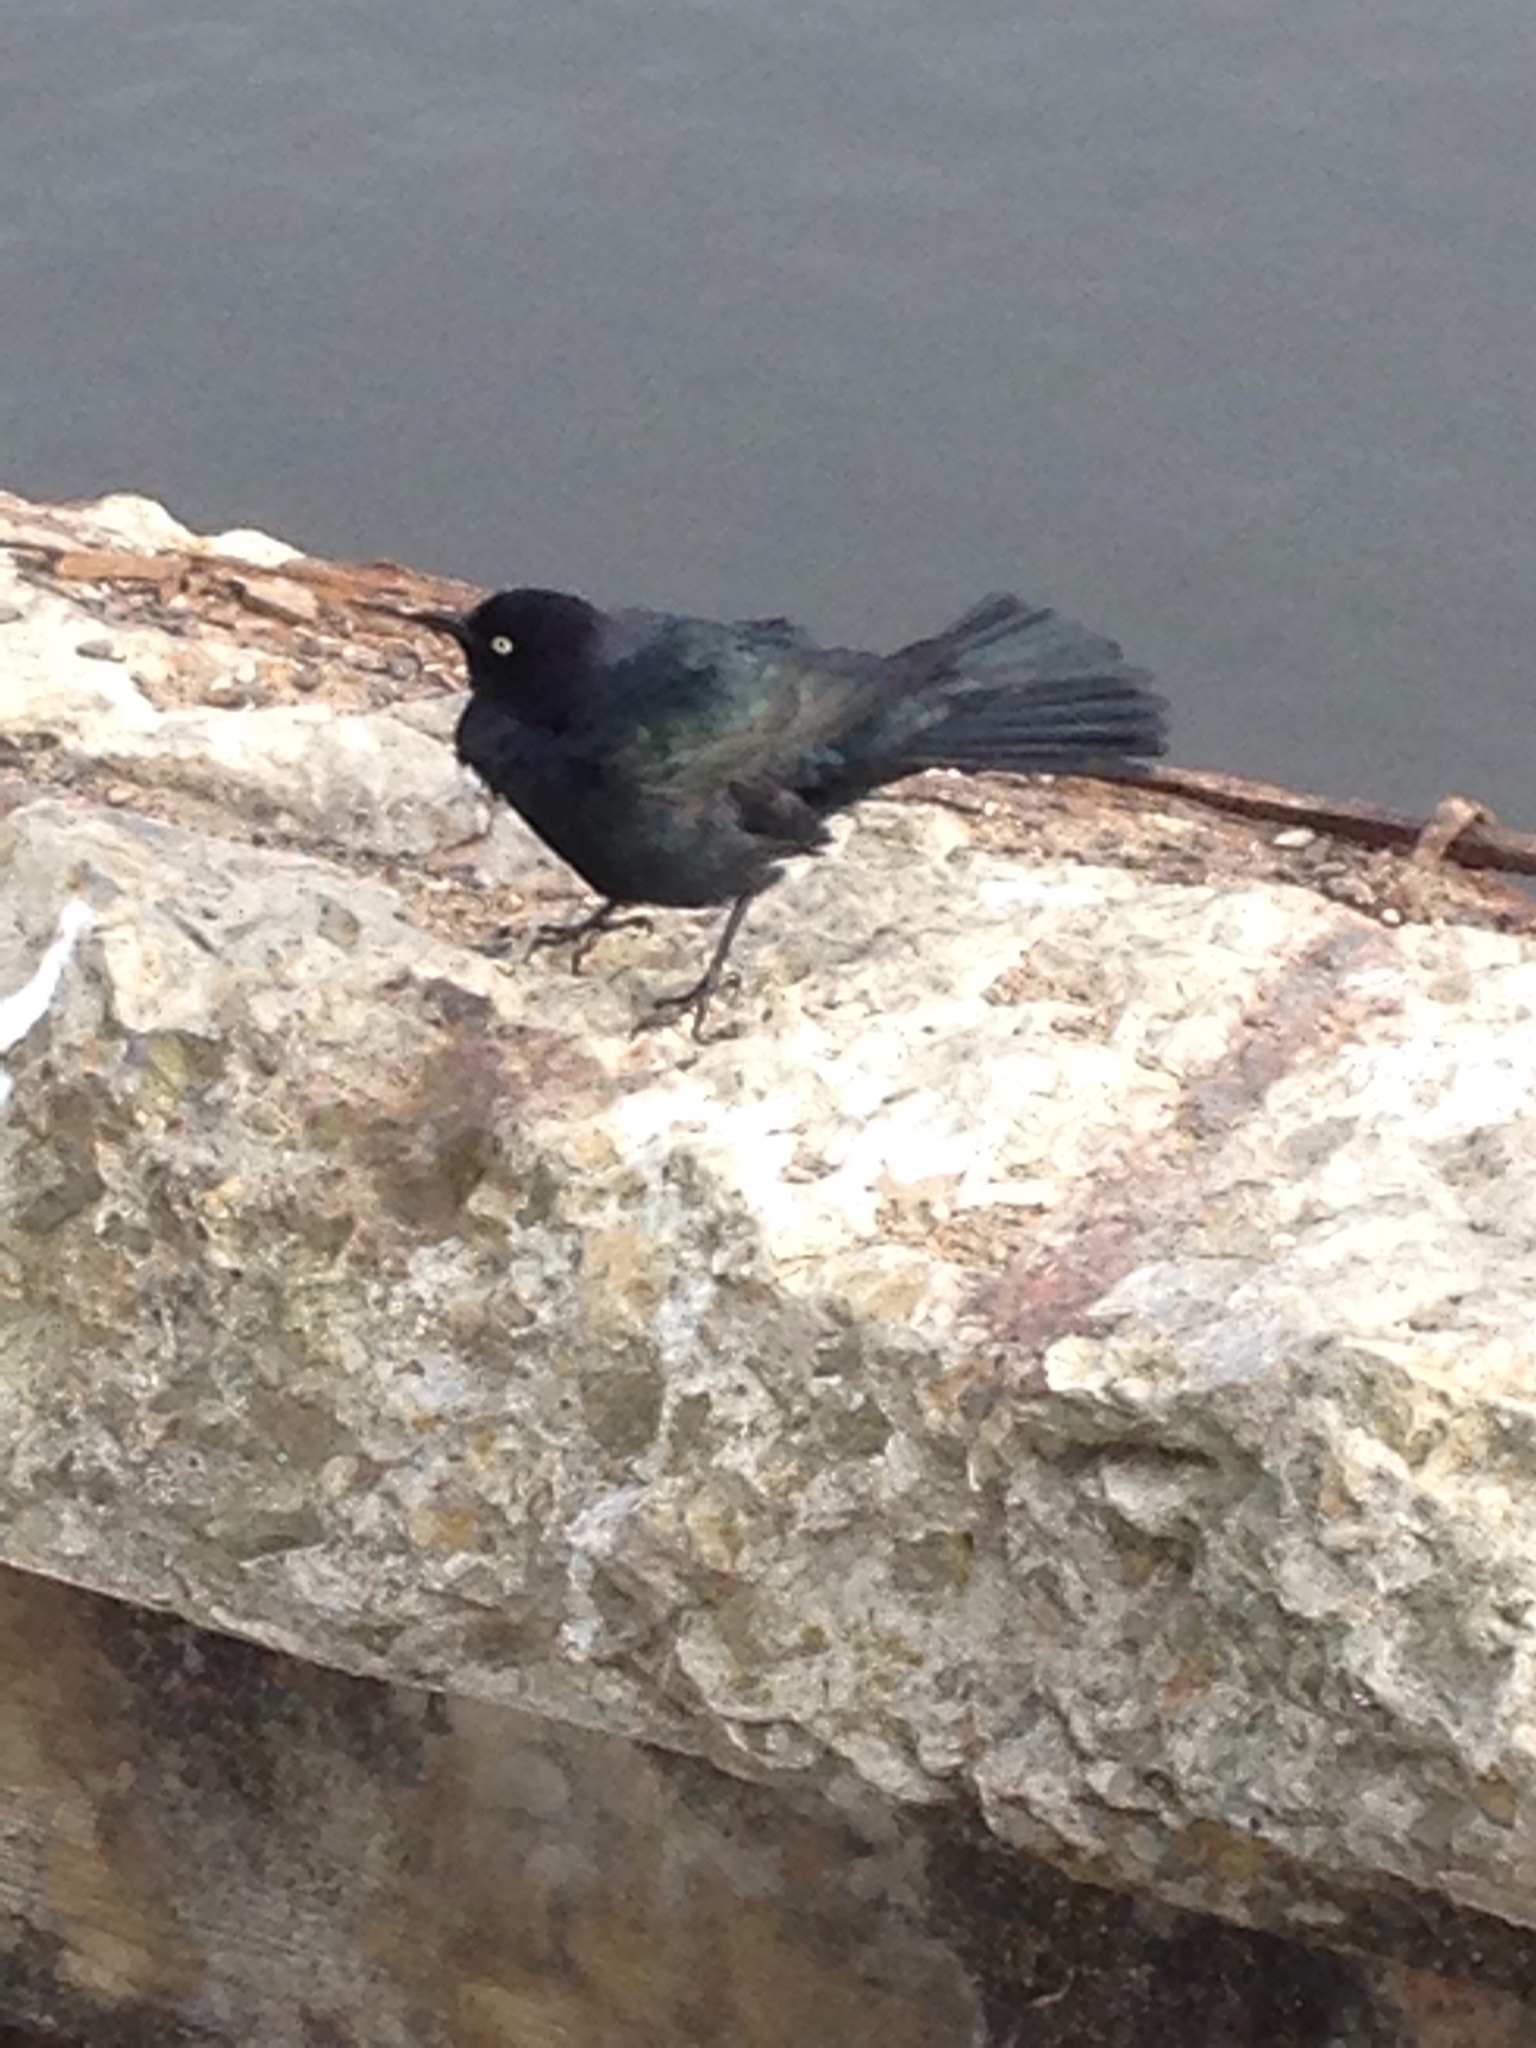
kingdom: Animalia
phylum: Chordata
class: Aves
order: Passeriformes
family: Icteridae
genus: Euphagus
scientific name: Euphagus cyanocephalus
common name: Brewer's blackbird
